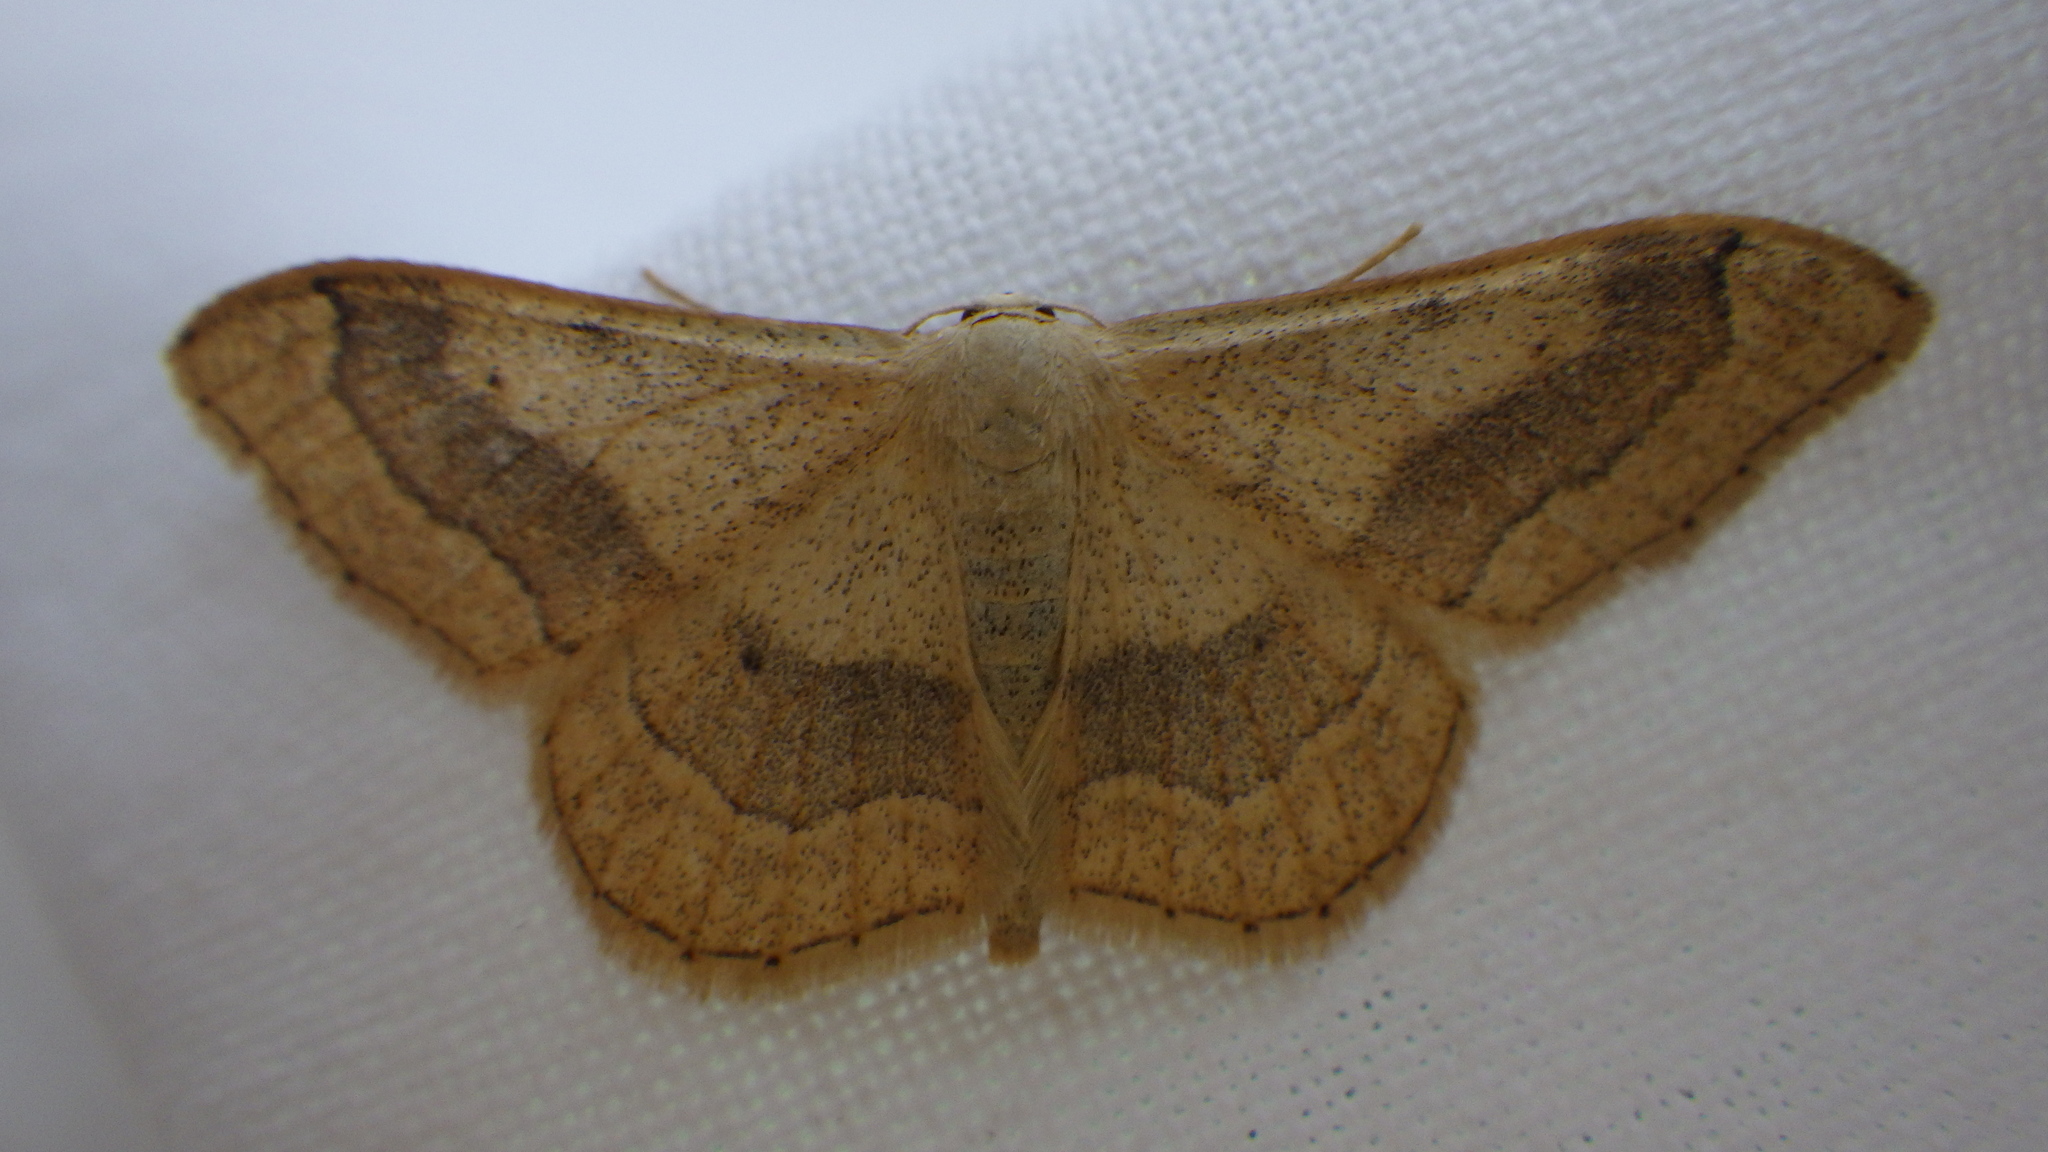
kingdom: Animalia
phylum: Arthropoda
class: Insecta
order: Lepidoptera
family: Geometridae
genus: Idaea
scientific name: Idaea aversata
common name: Riband wave
